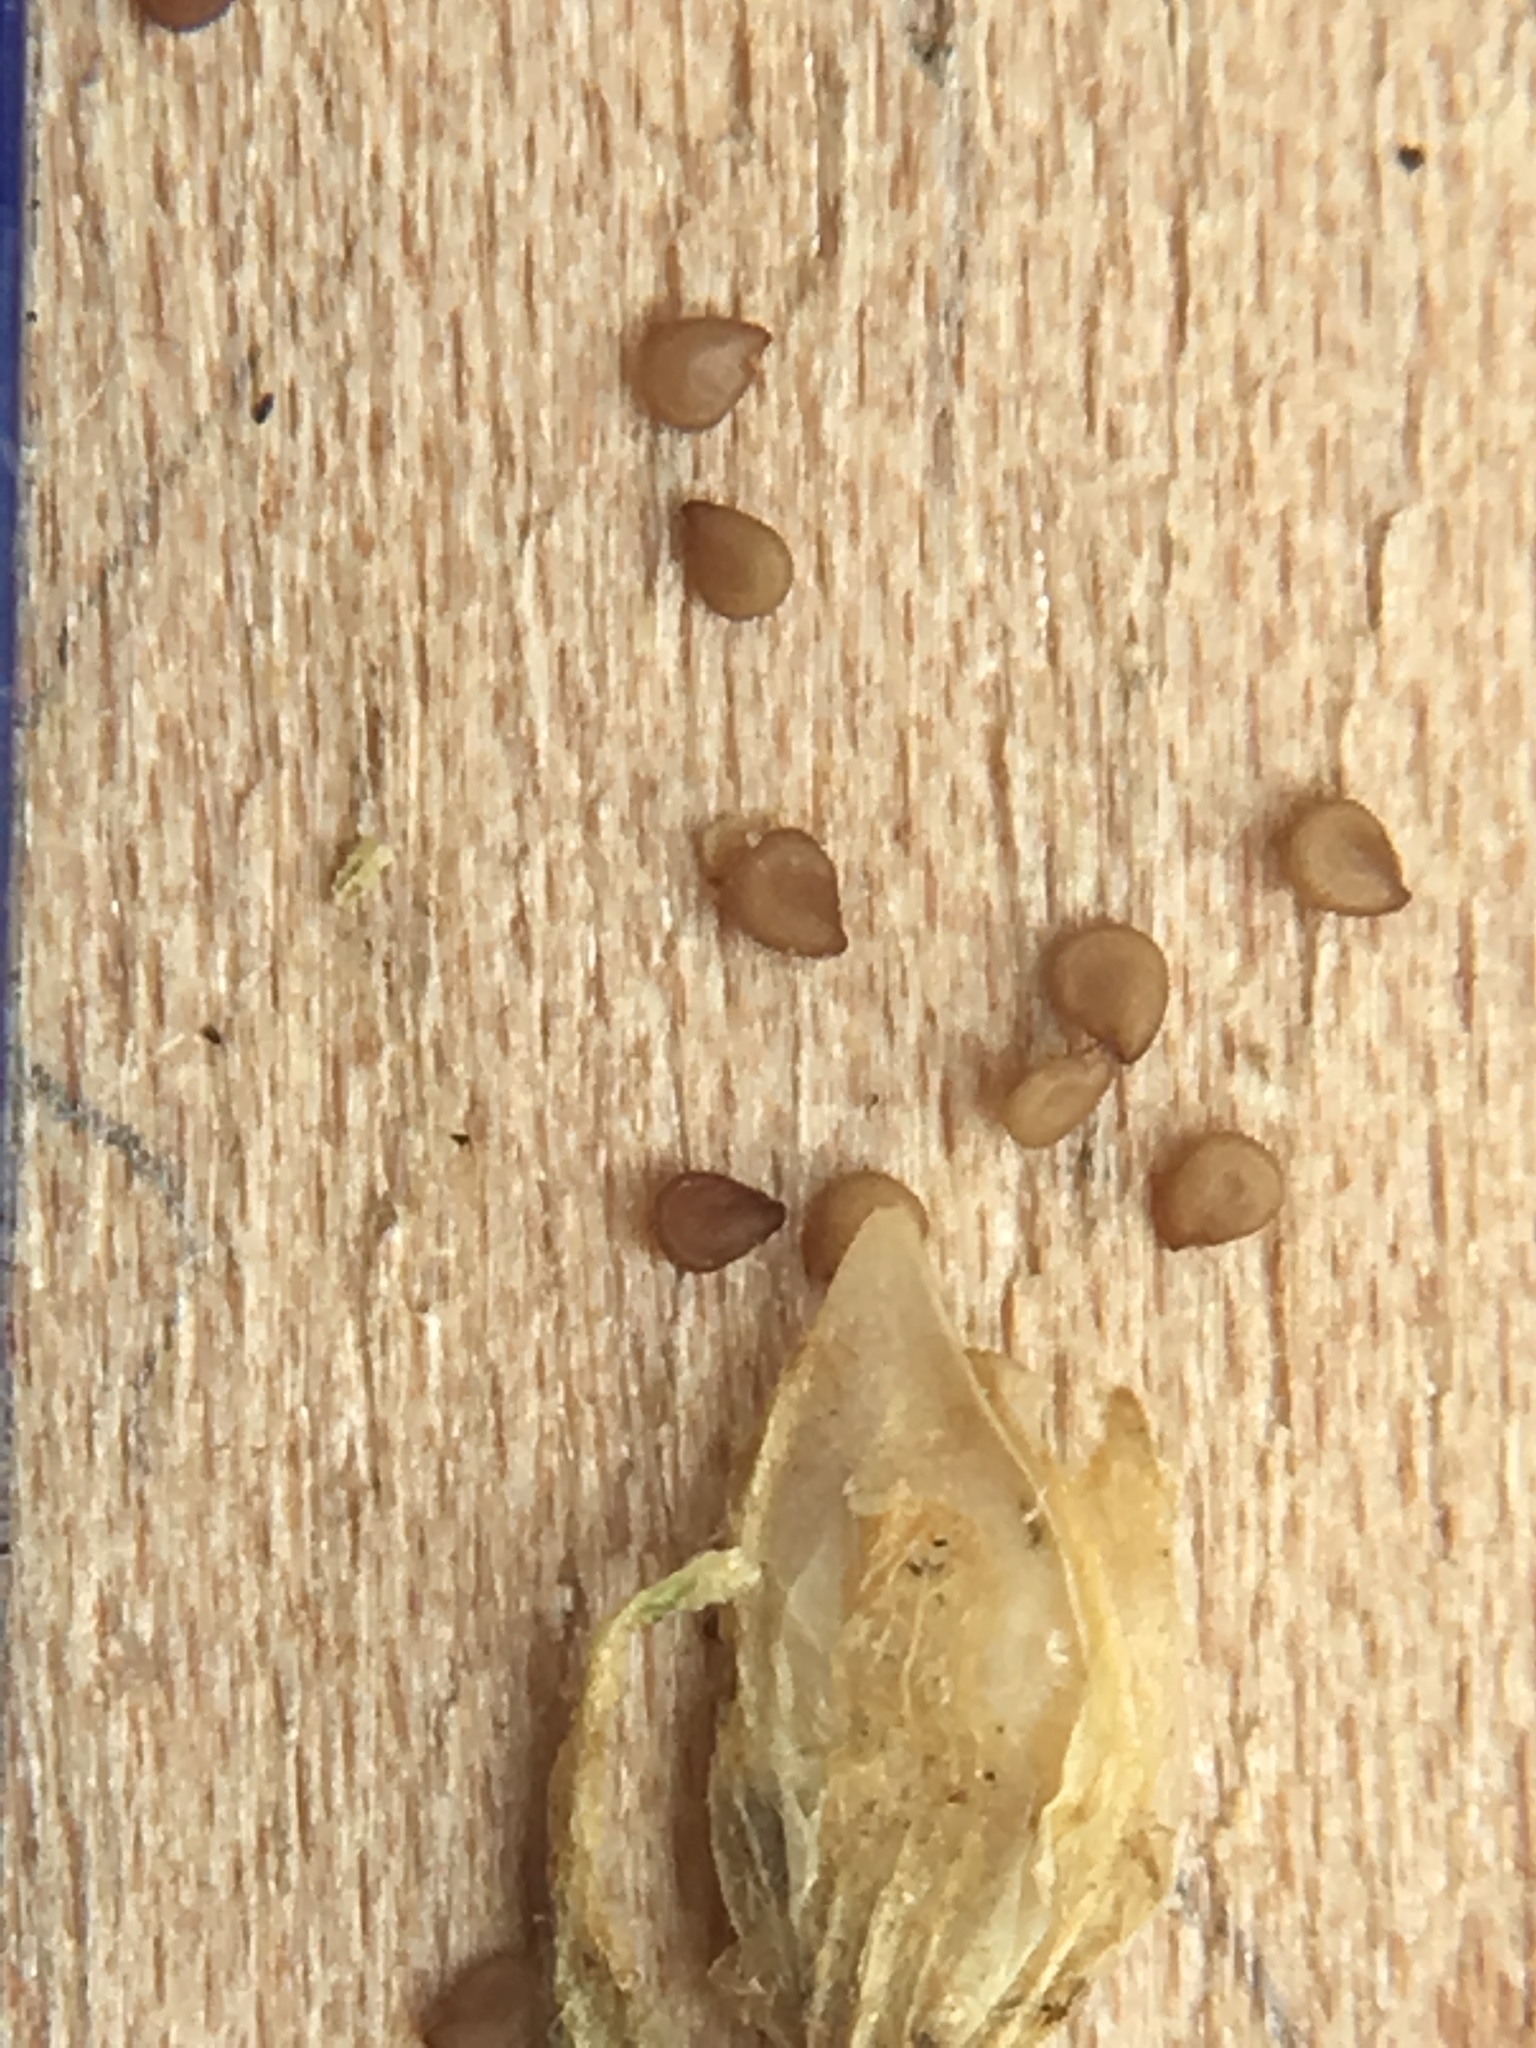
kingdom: Plantae
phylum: Tracheophyta
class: Magnoliopsida
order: Caryophyllales
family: Caryophyllaceae
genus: Spergularia
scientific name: Spergularia marina
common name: Lesser sea-spurrey
